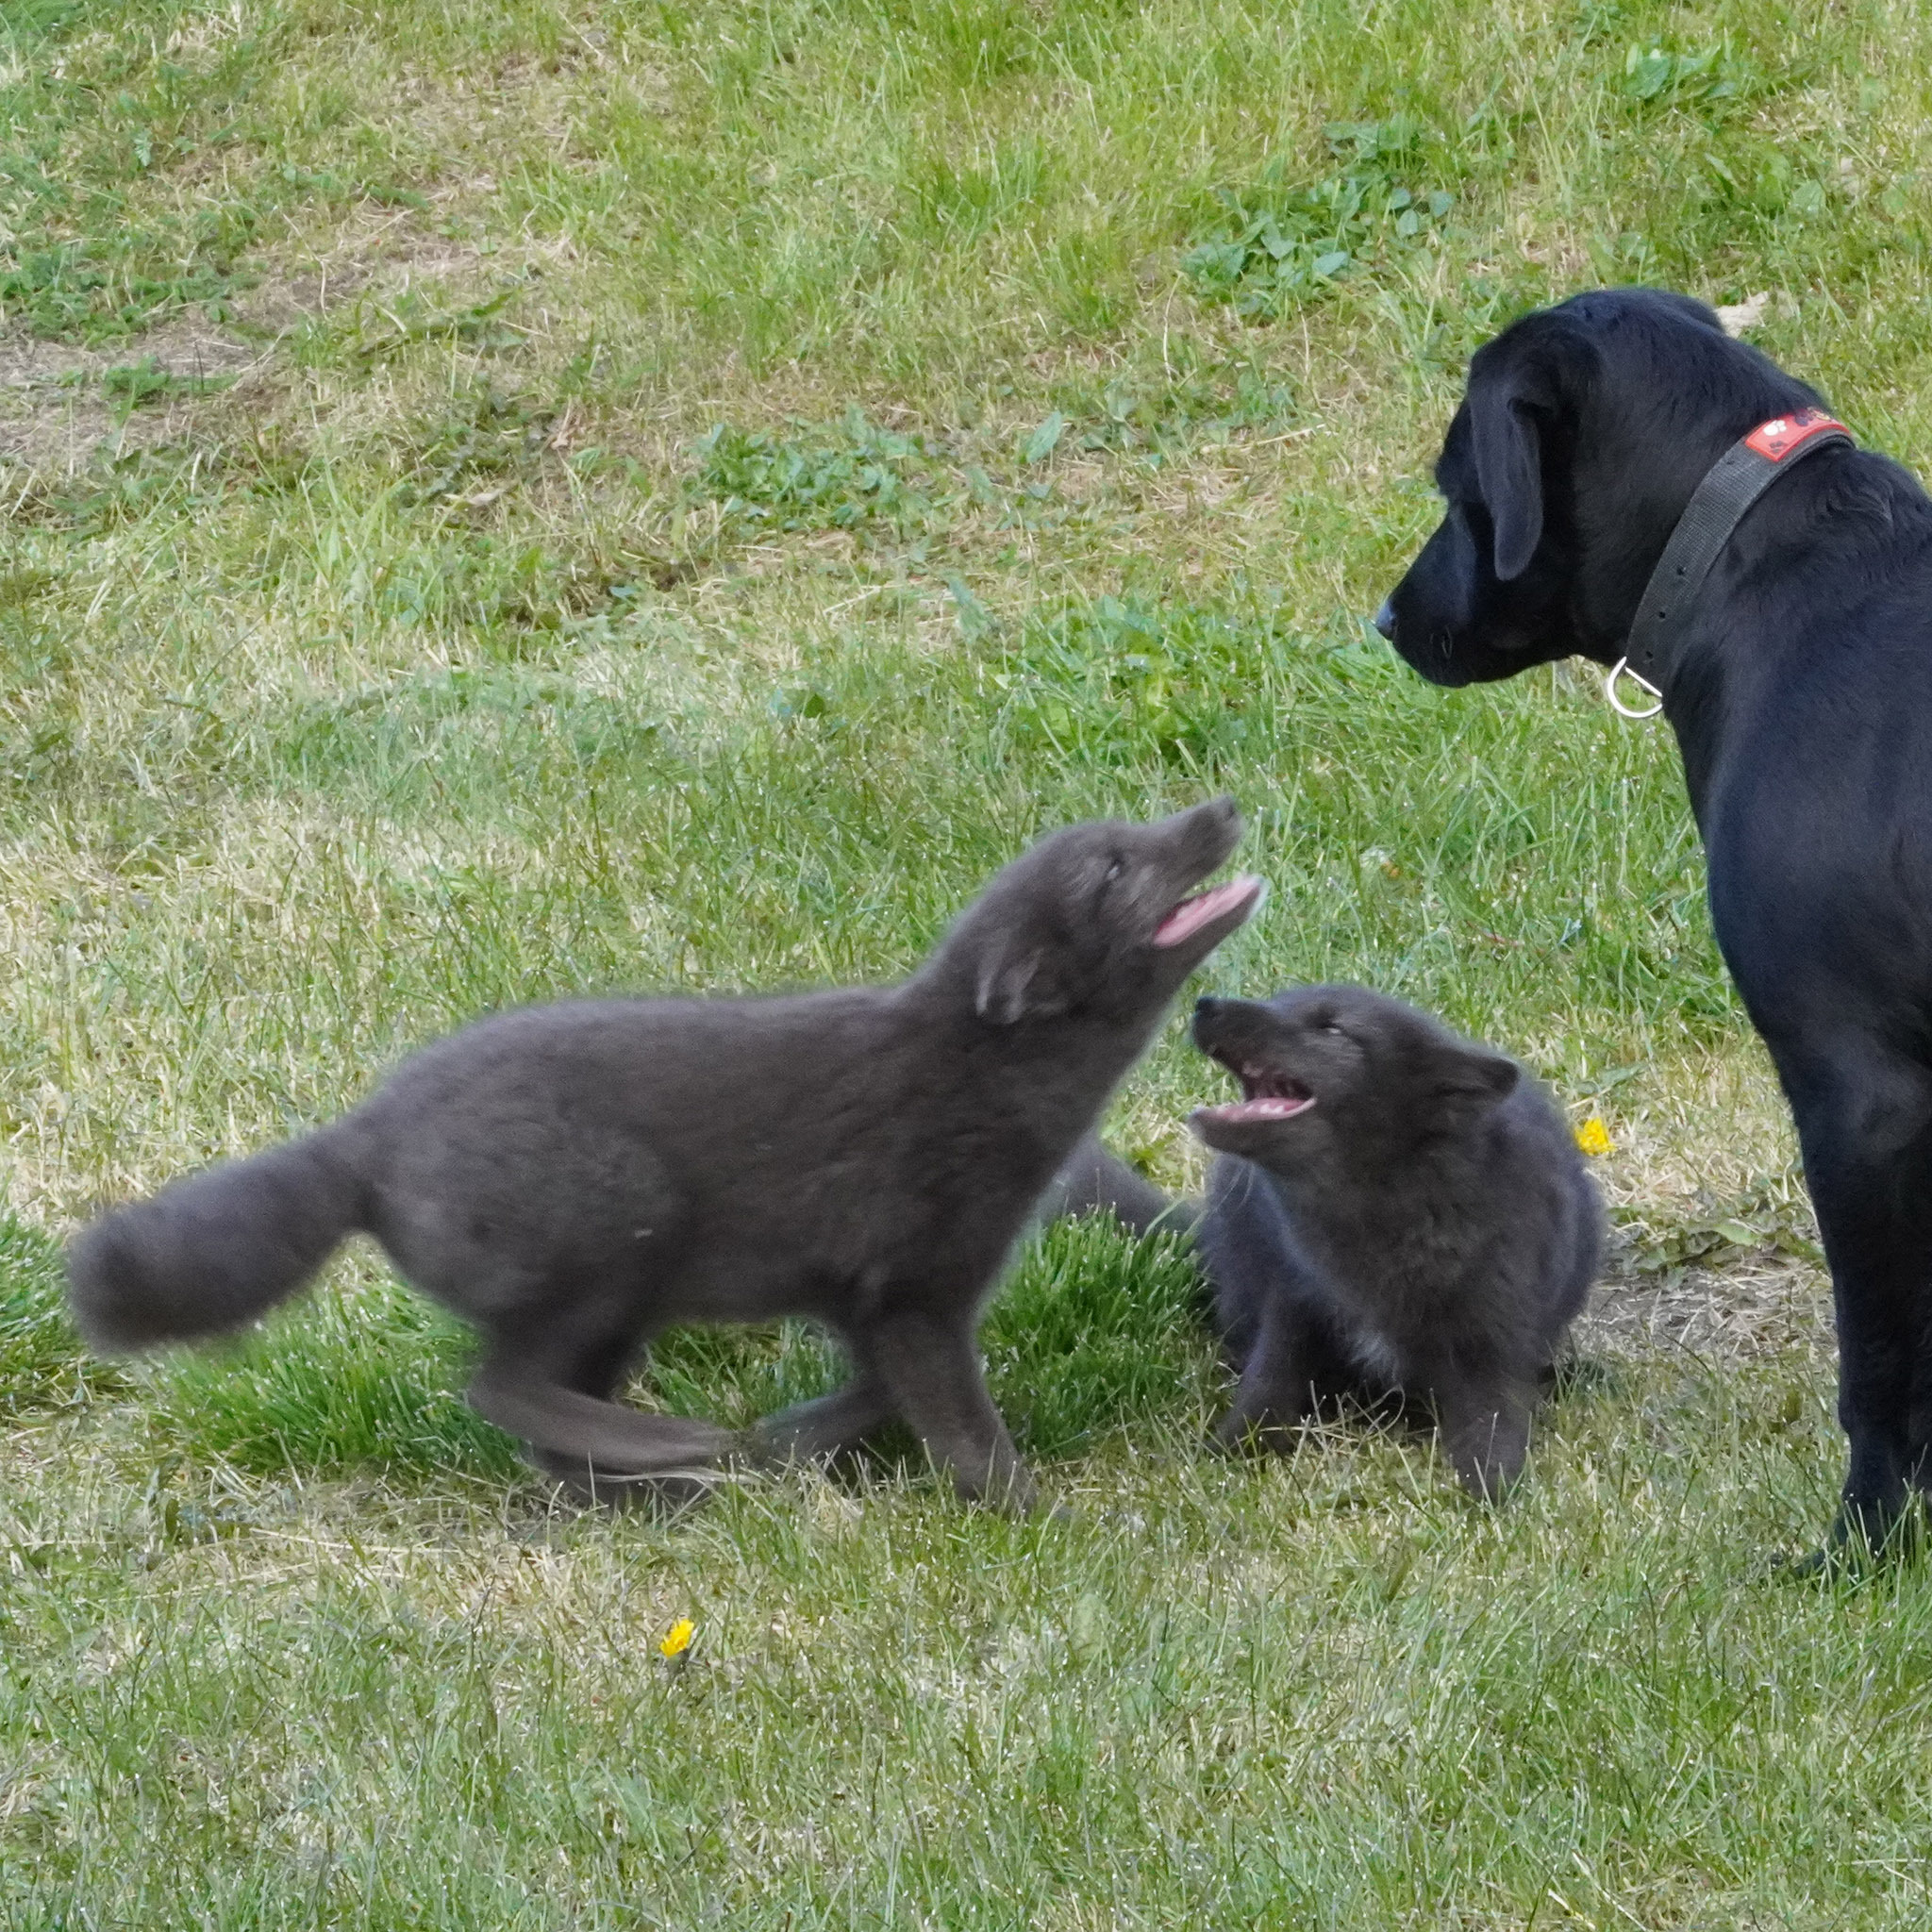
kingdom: Animalia
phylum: Chordata
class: Mammalia
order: Carnivora
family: Canidae
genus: Vulpes
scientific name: Vulpes lagopus
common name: Arctic fox
